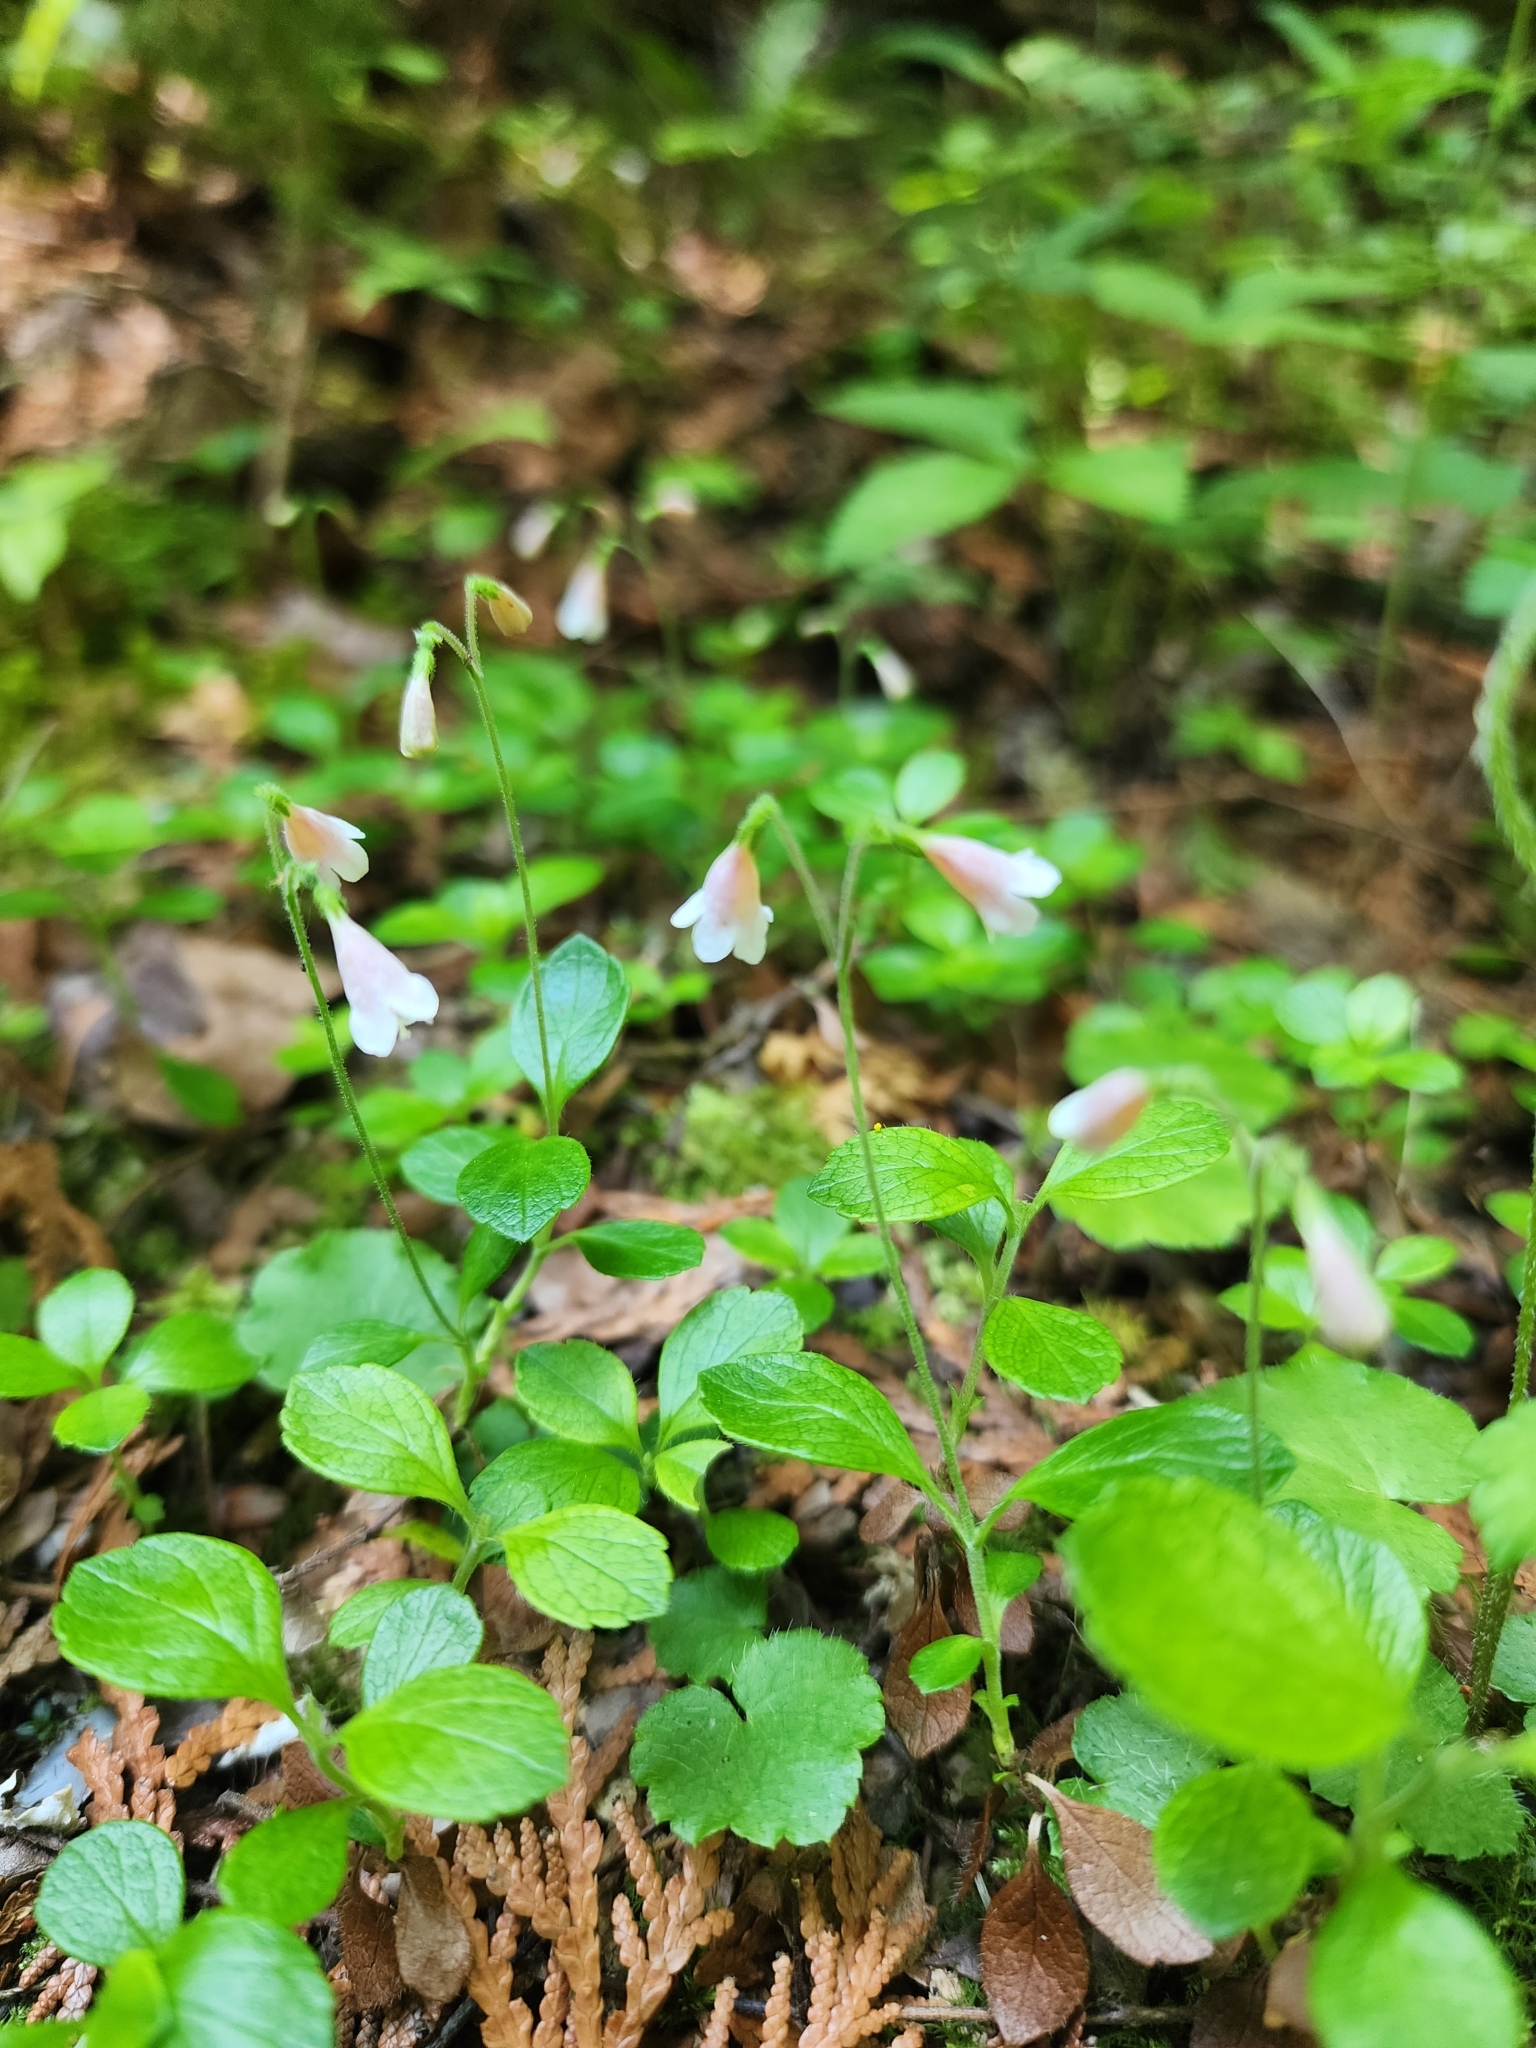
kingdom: Plantae
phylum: Tracheophyta
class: Magnoliopsida
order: Dipsacales
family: Caprifoliaceae
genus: Linnaea
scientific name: Linnaea borealis
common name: Twinflower
